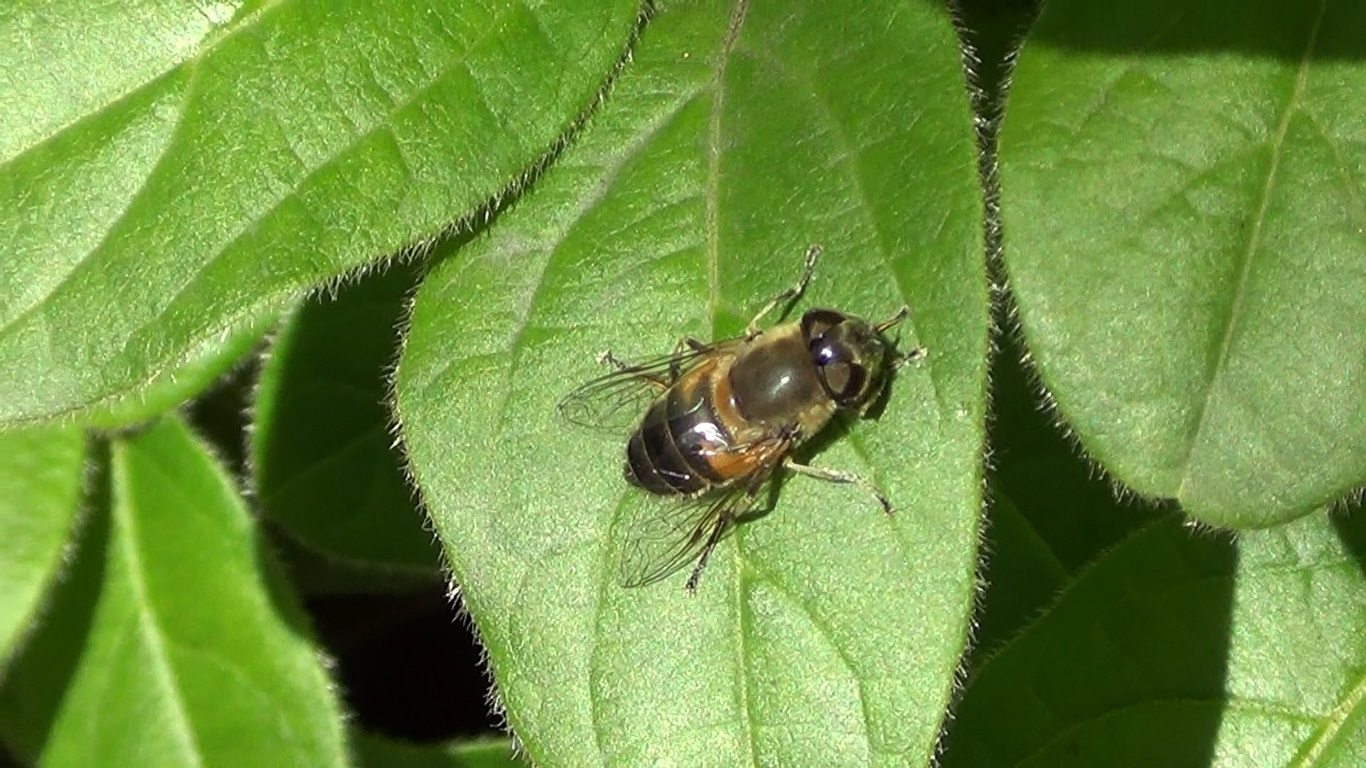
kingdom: Animalia
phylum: Arthropoda
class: Insecta
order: Diptera
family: Syrphidae
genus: Eristalis
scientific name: Eristalis pertinax
